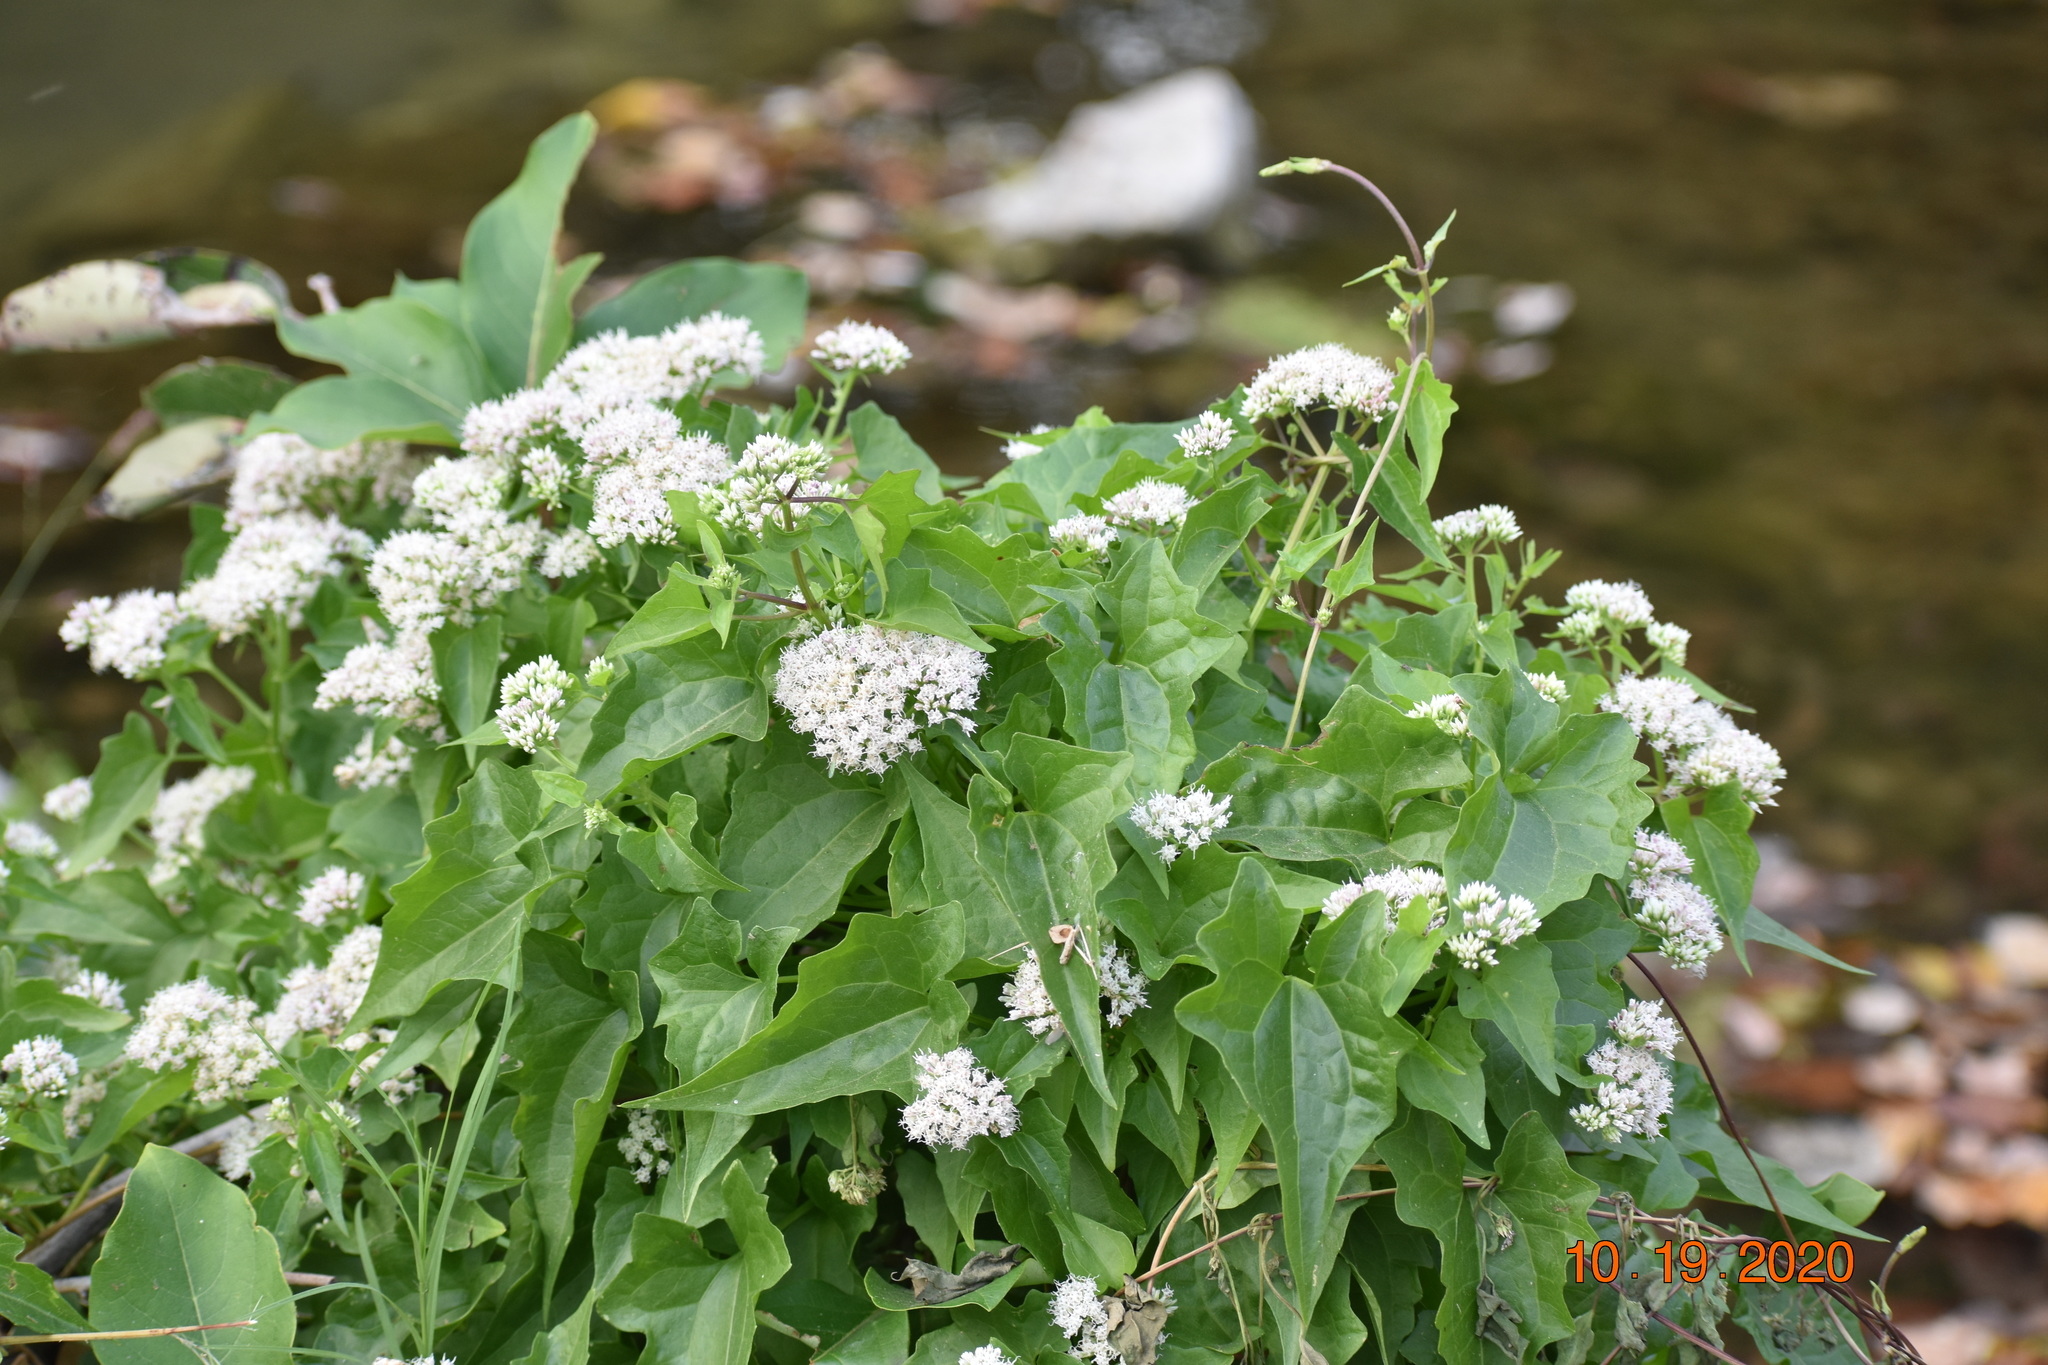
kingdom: Plantae
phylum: Tracheophyta
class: Magnoliopsida
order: Asterales
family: Asteraceae
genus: Mikania
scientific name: Mikania scandens
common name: Climbing hempvine
